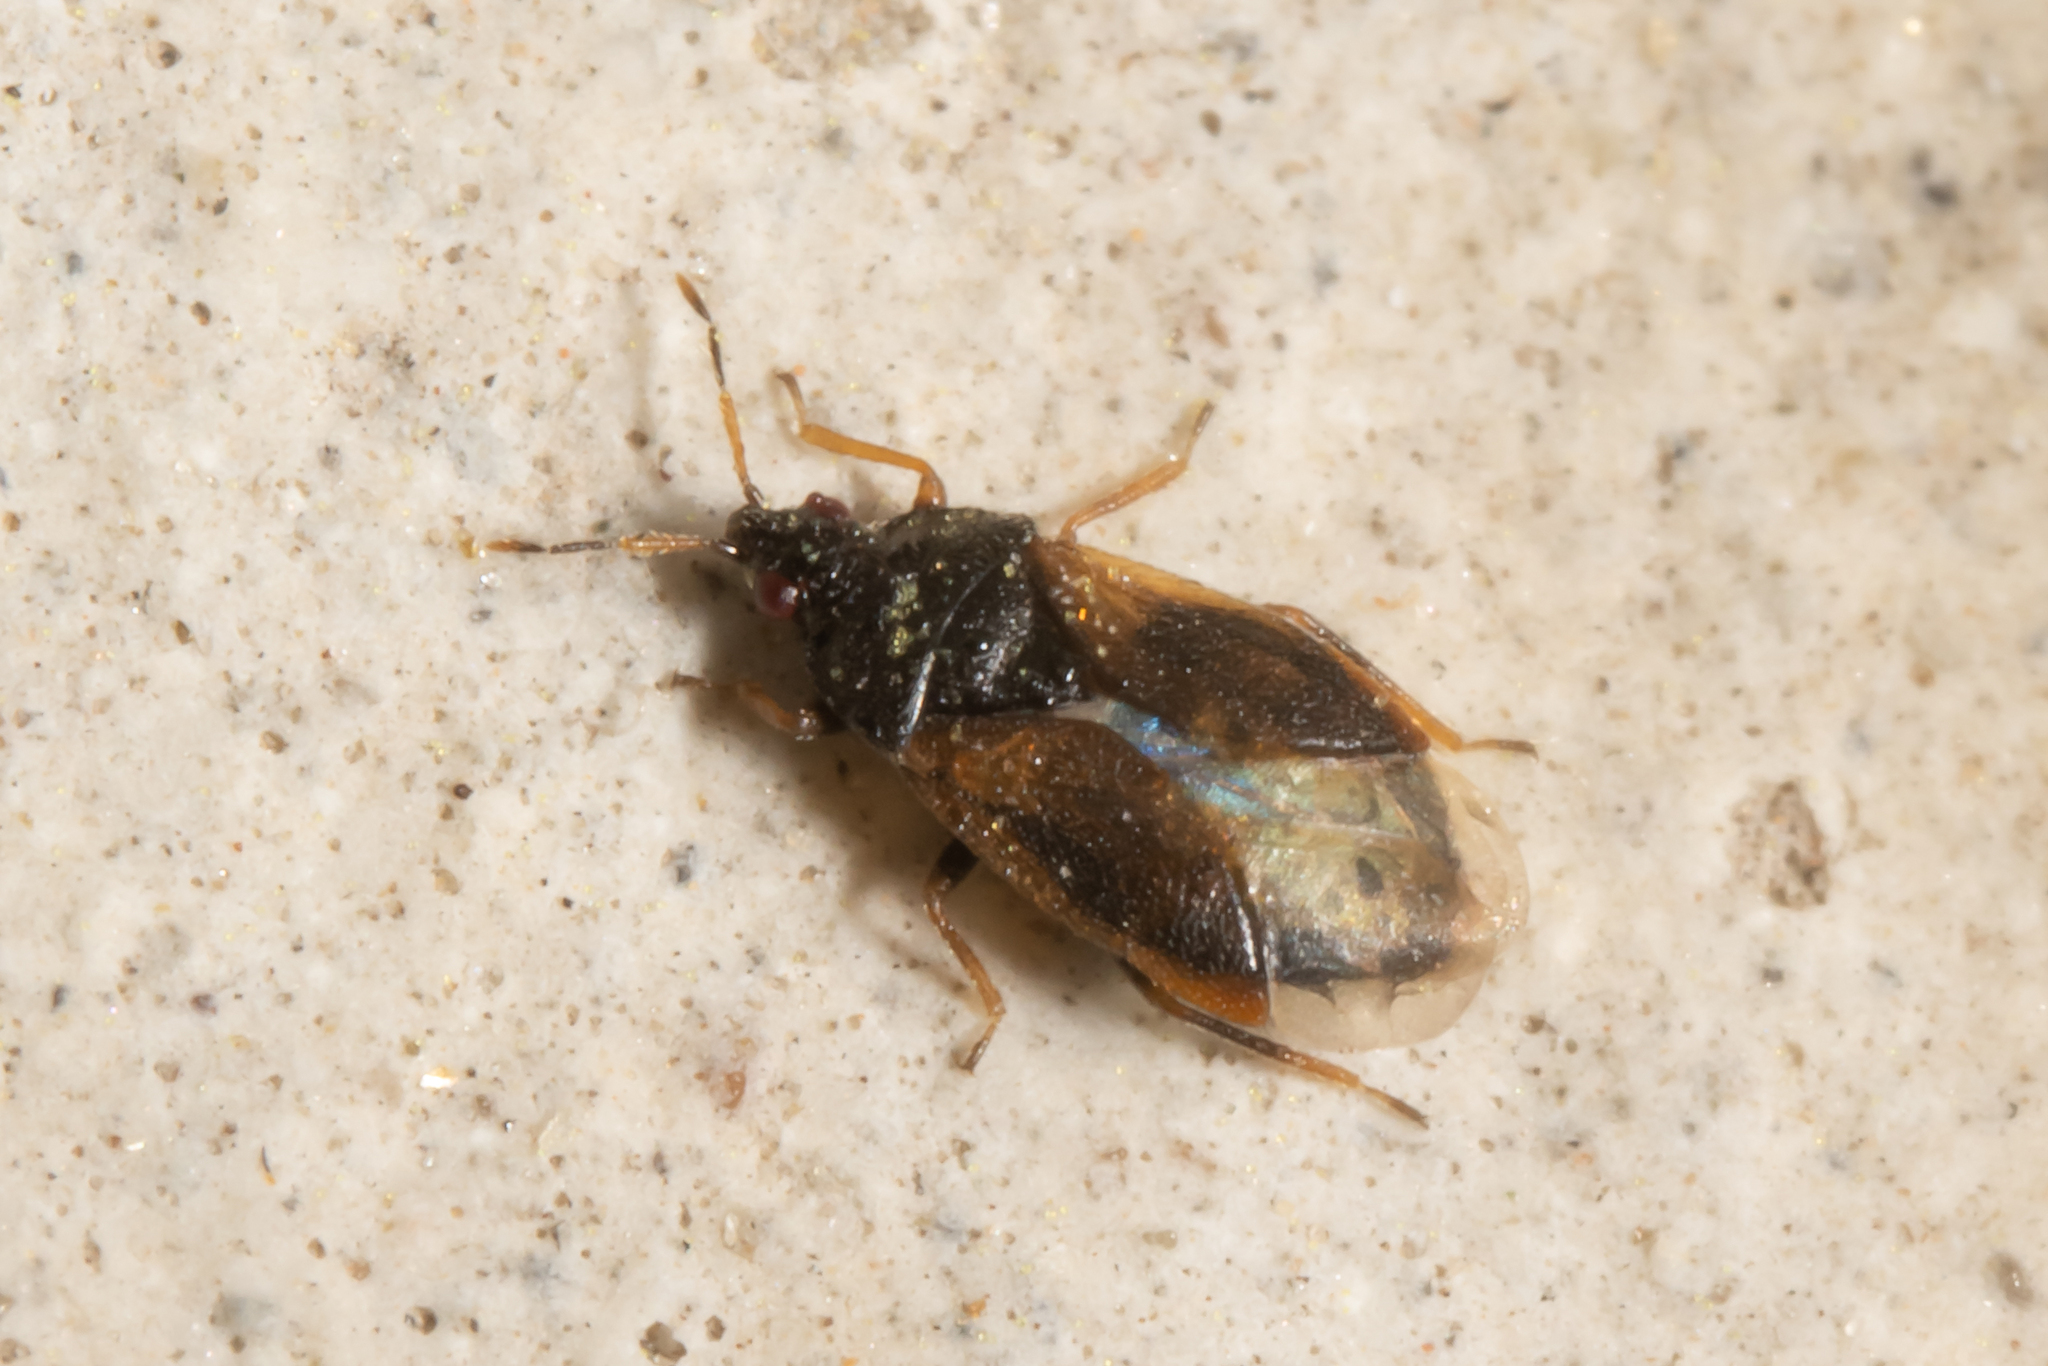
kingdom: Animalia
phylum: Arthropoda
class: Insecta
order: Hemiptera
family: Anthocoridae
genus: Brachysteles
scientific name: Brachysteles parvicornis
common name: Minute pirate bug
